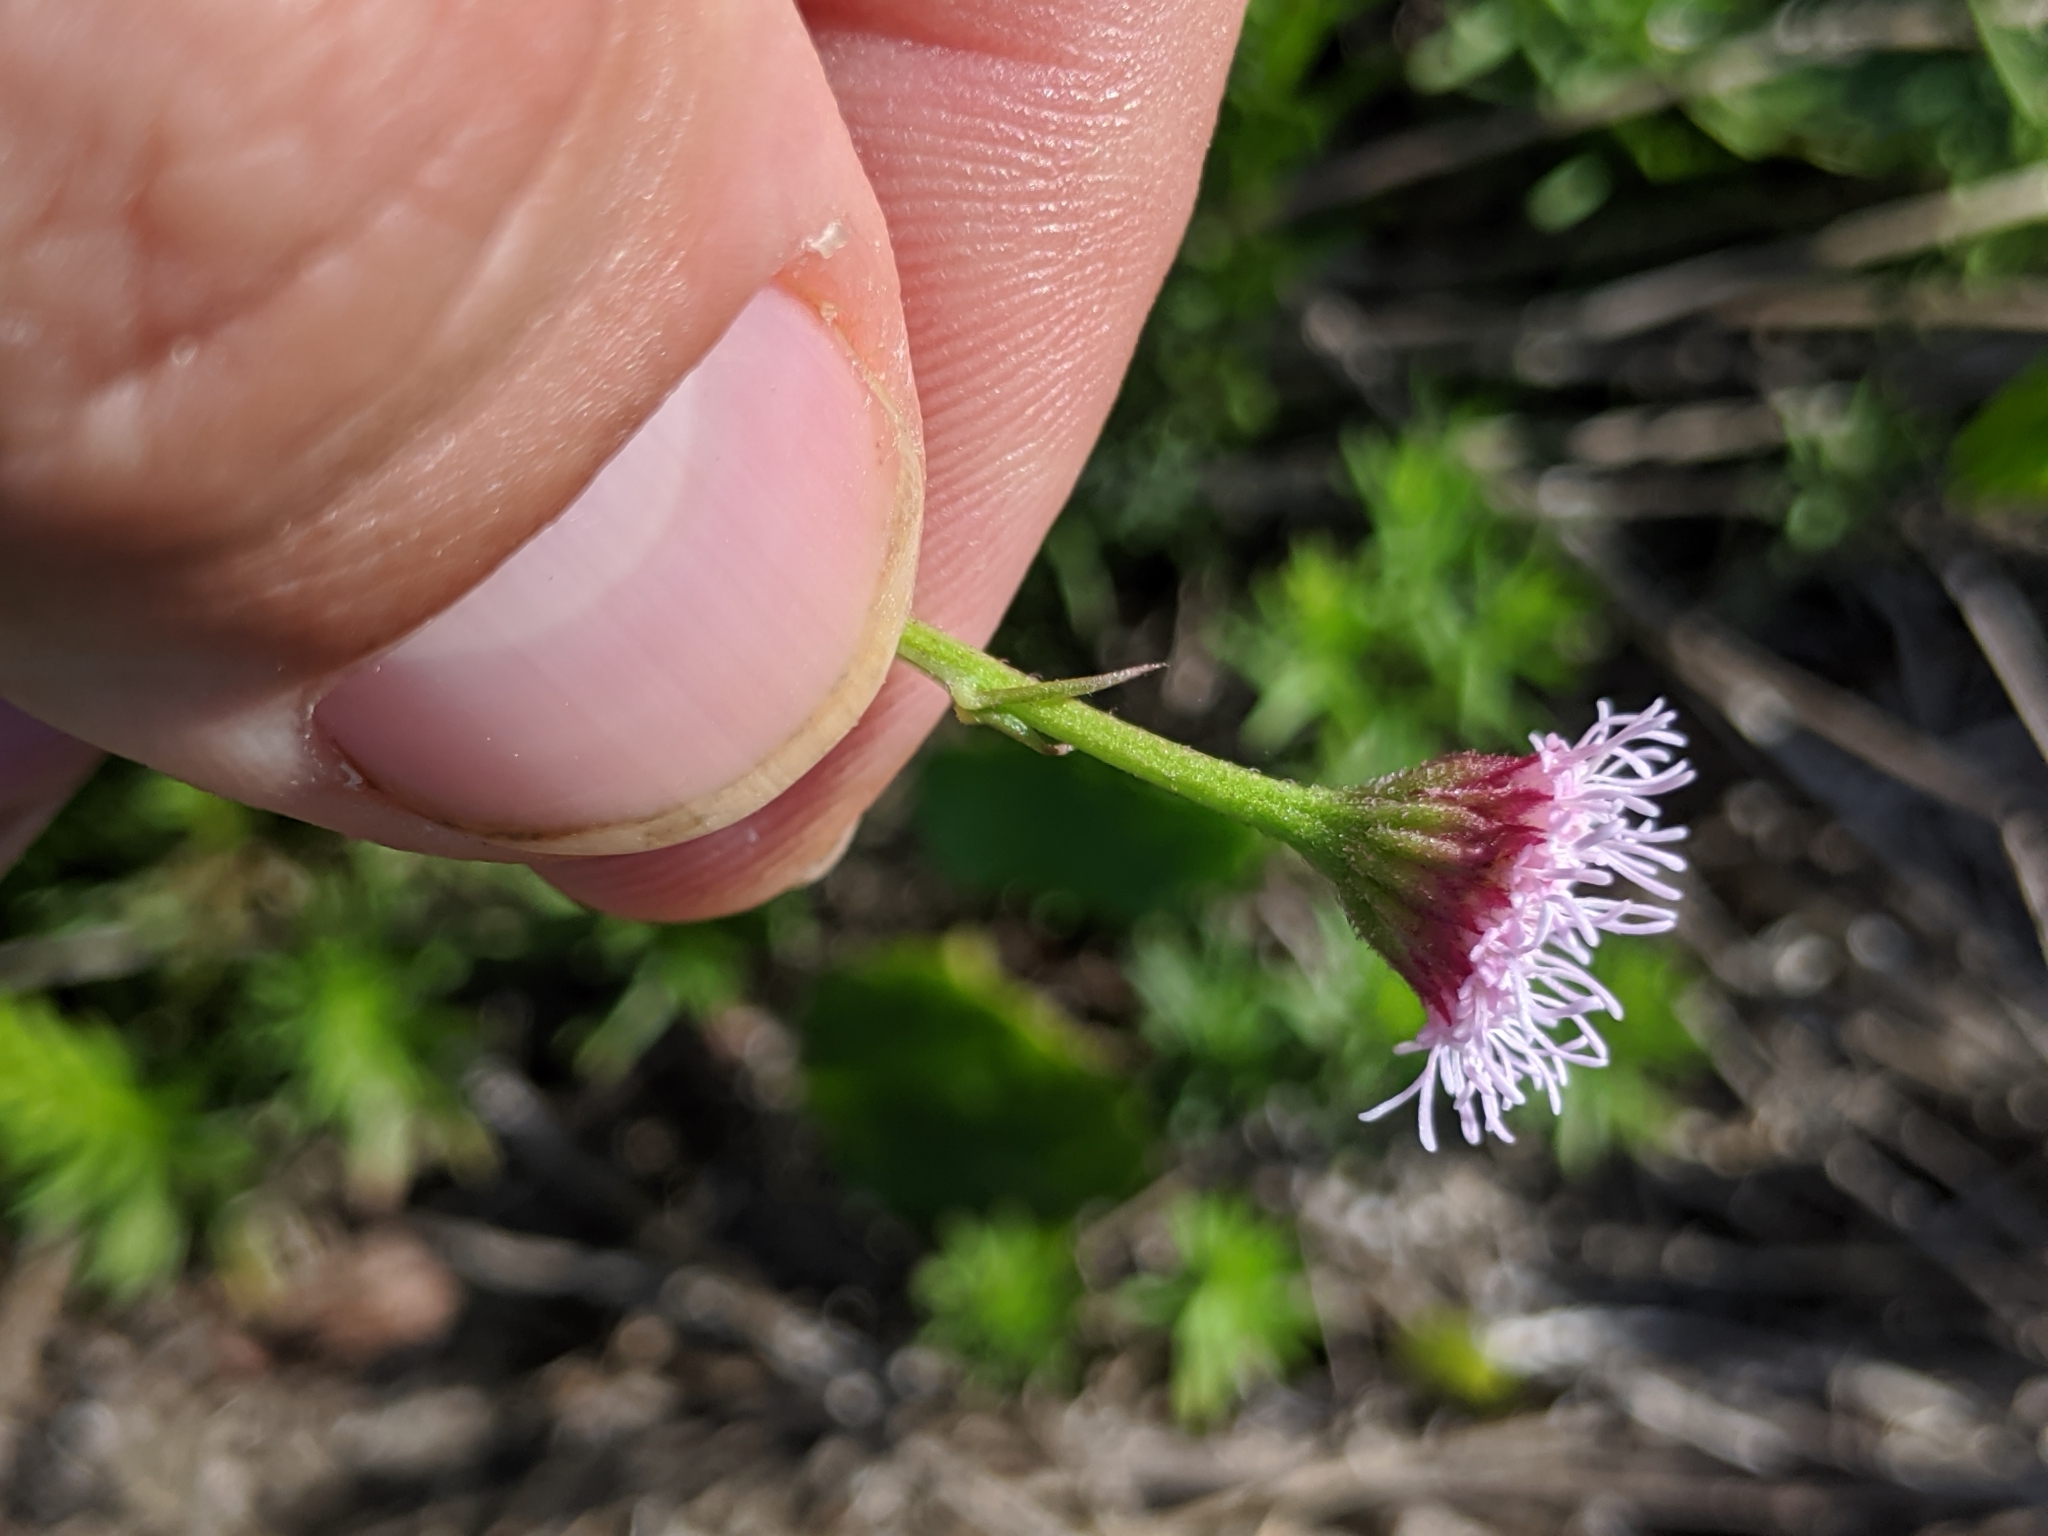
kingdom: Plantae
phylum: Tracheophyta
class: Magnoliopsida
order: Asterales
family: Asteraceae
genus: Sclerolepis
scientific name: Sclerolepis uniflora
